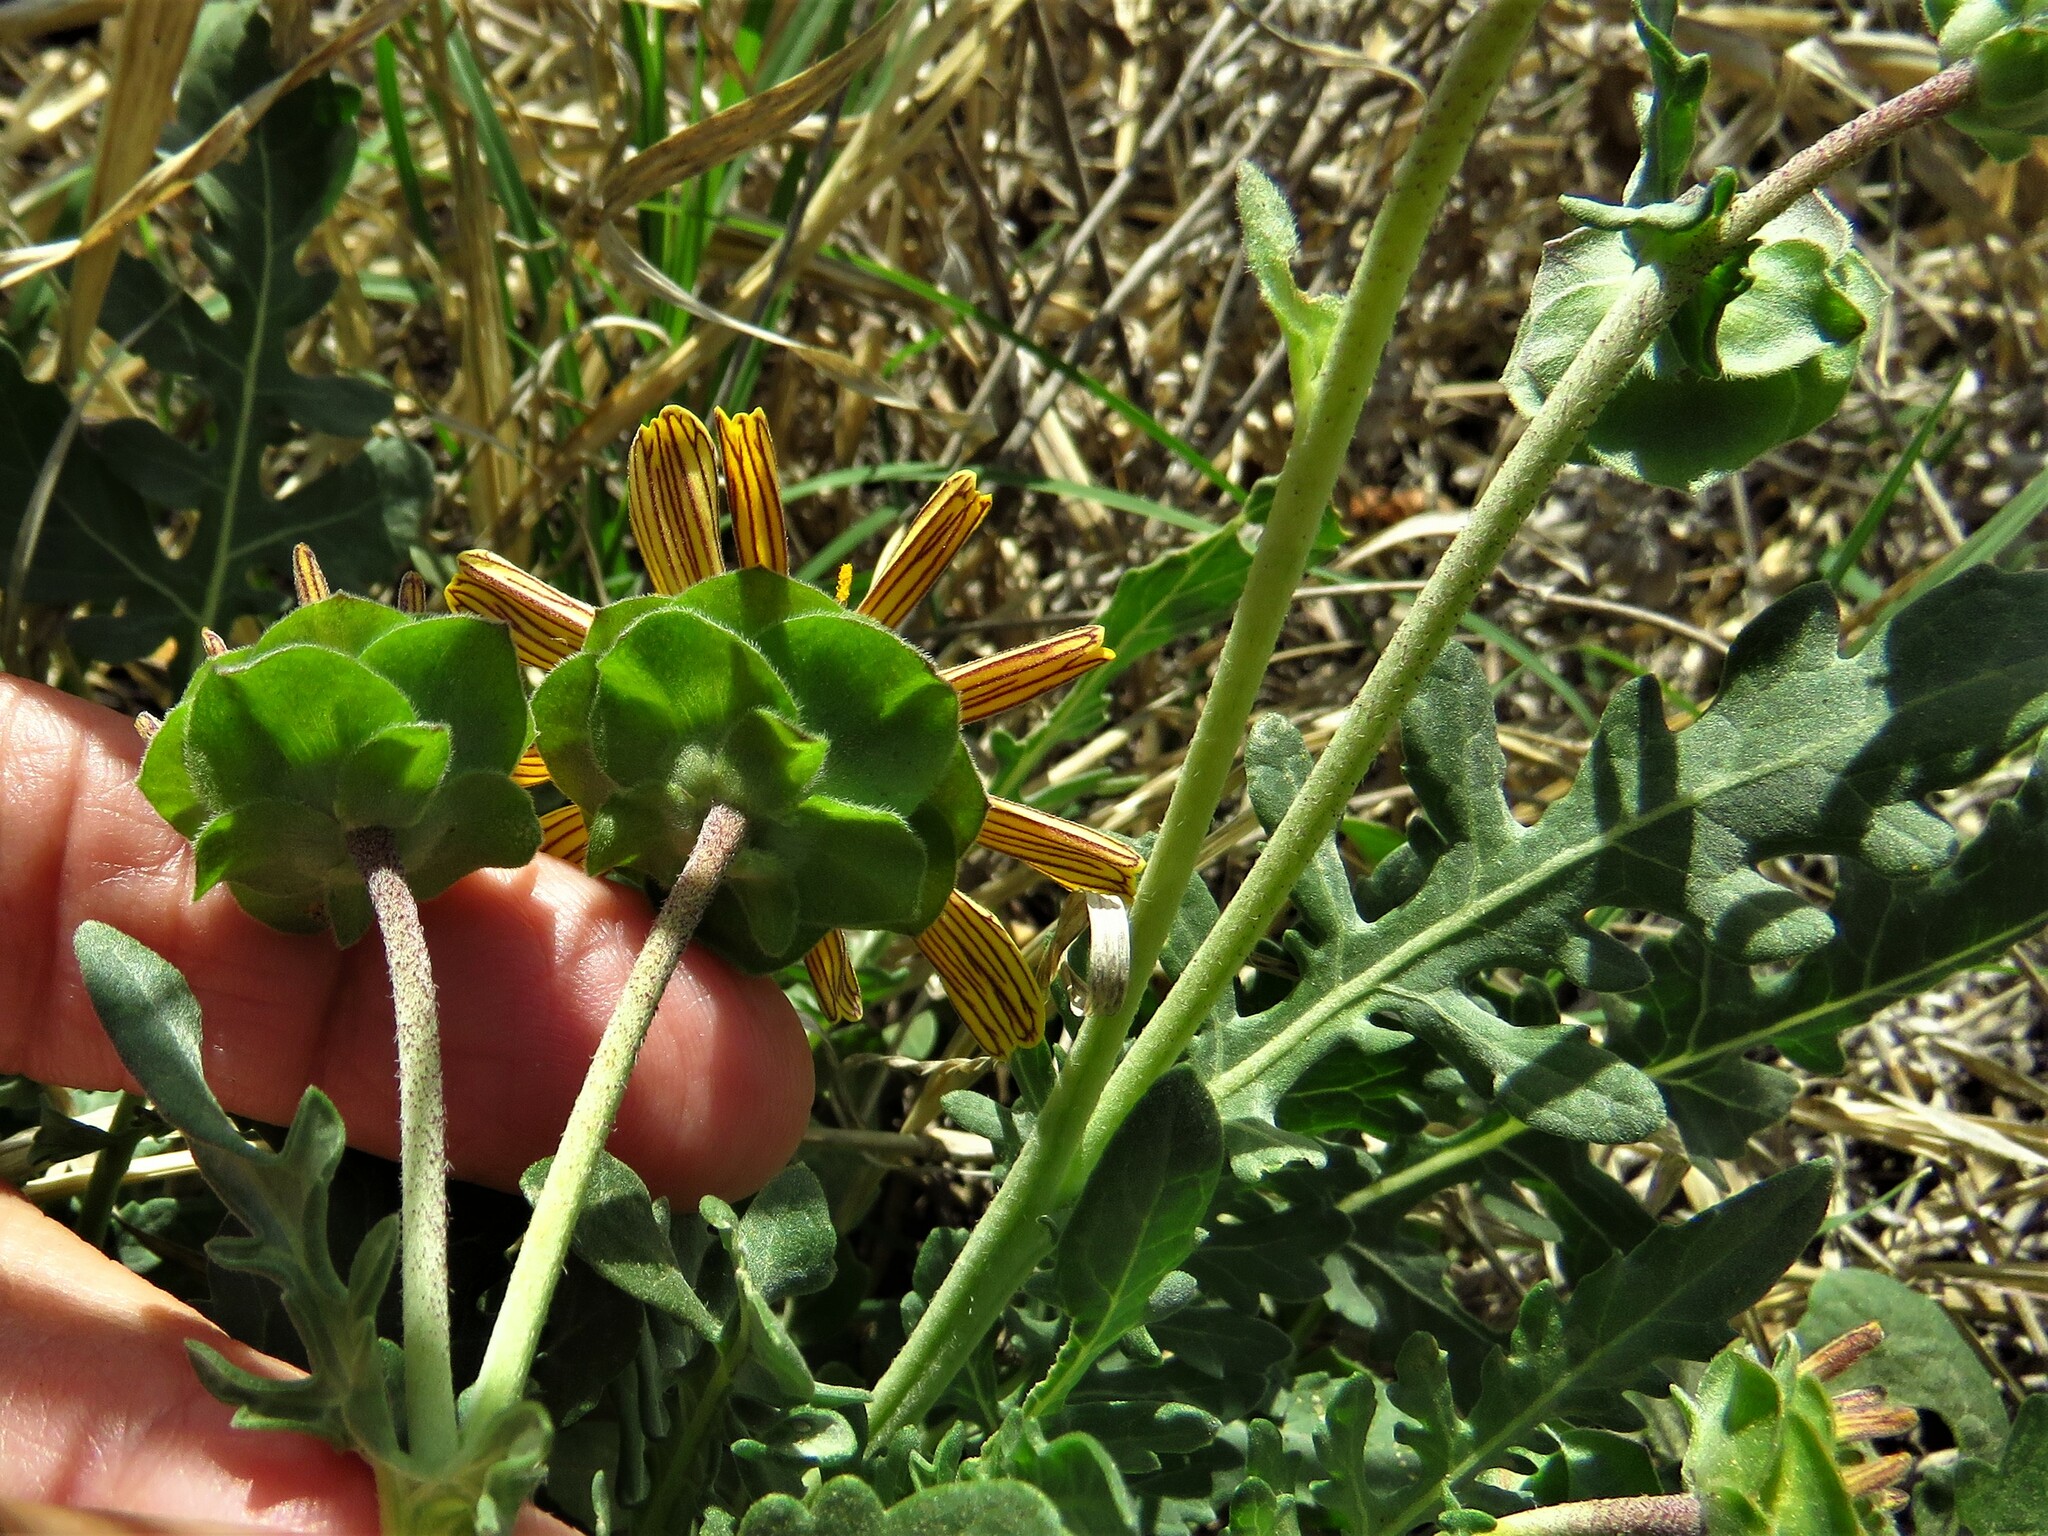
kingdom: Plantae
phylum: Tracheophyta
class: Magnoliopsida
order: Asterales
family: Asteraceae
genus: Berlandiera
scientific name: Berlandiera lyrata
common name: Chocolate-flower
